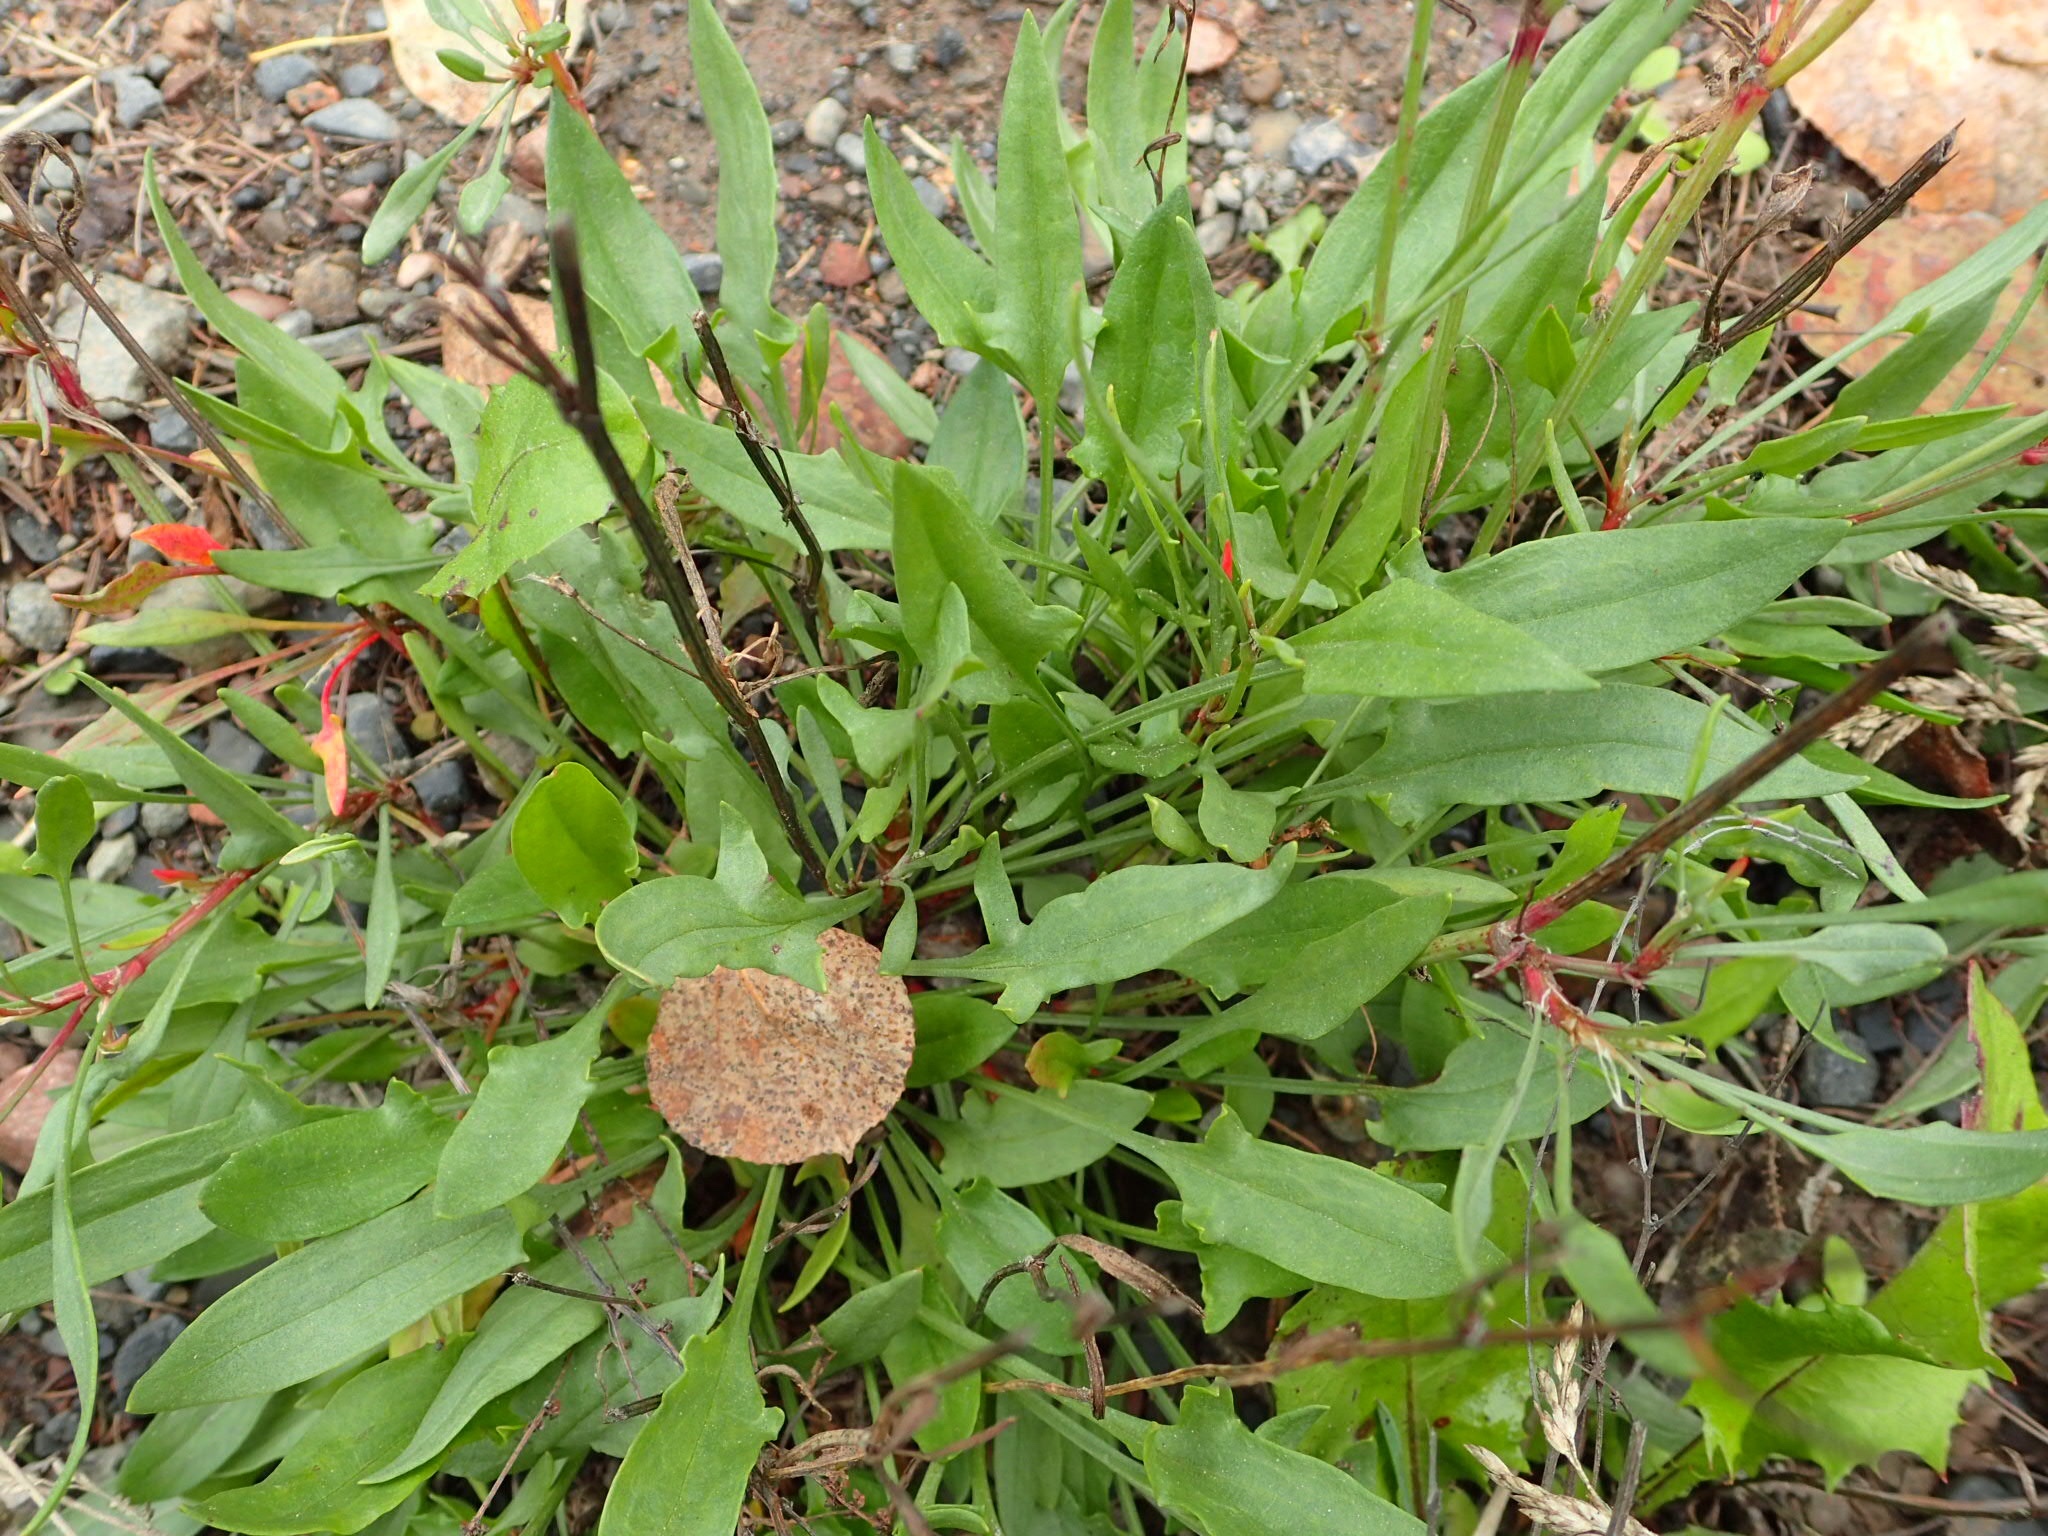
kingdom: Plantae
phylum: Tracheophyta
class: Magnoliopsida
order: Caryophyllales
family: Polygonaceae
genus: Rumex
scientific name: Rumex acetosella
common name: Common sheep sorrel
